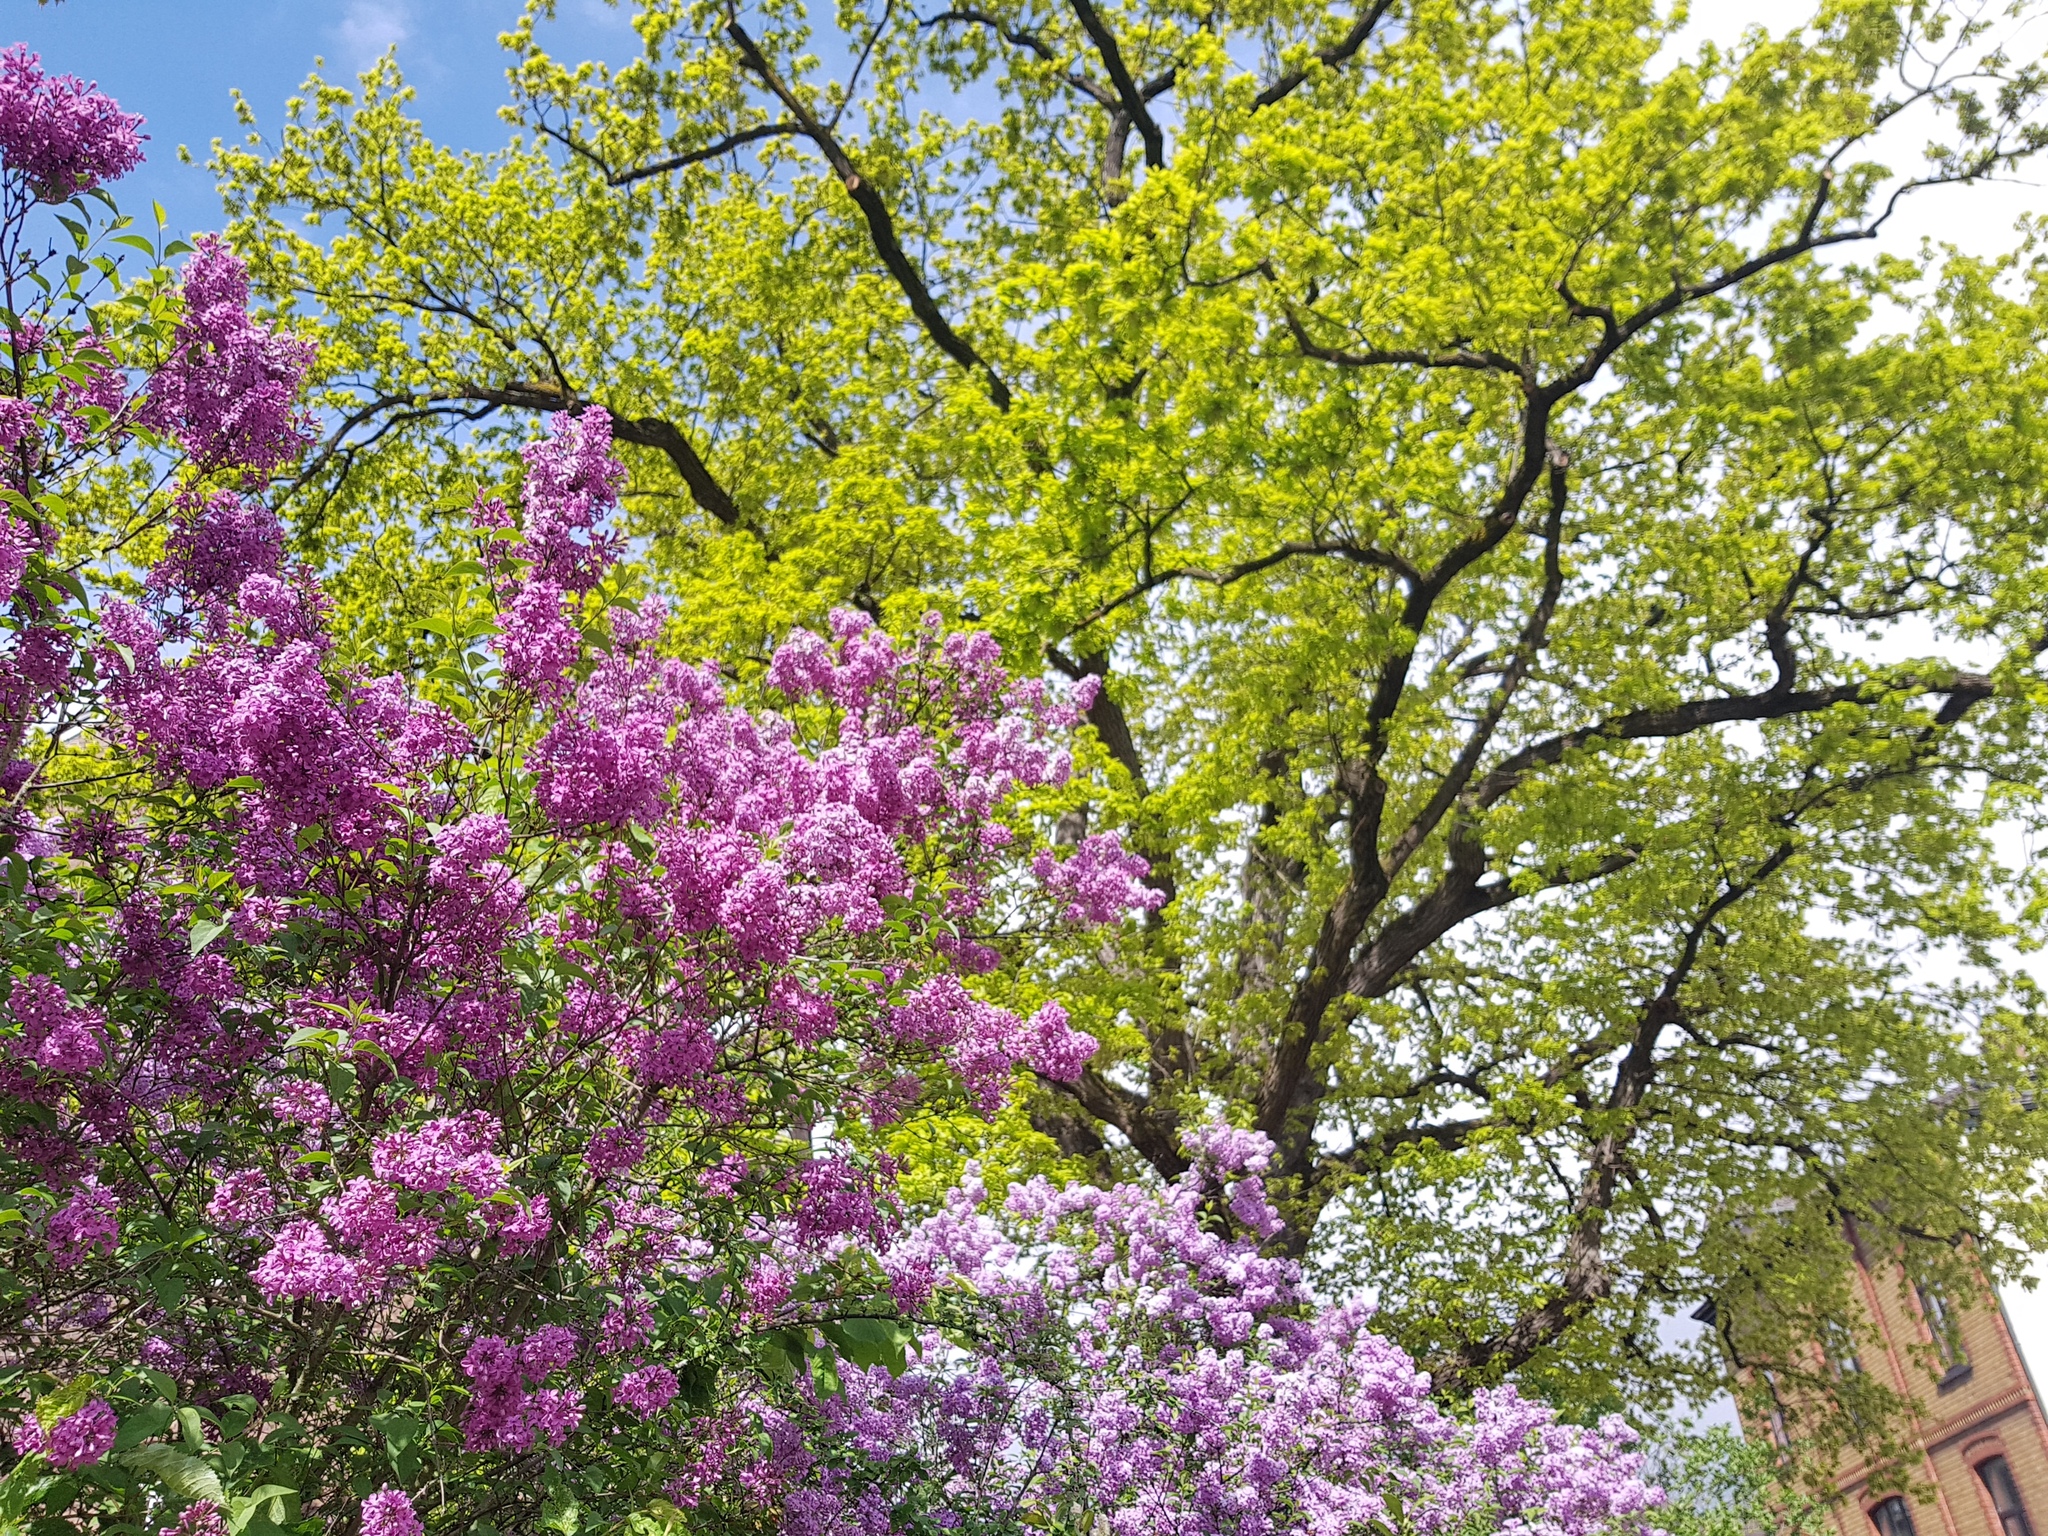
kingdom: Plantae
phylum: Tracheophyta
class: Magnoliopsida
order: Lamiales
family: Oleaceae
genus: Syringa
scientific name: Syringa vulgaris
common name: Common lilac
